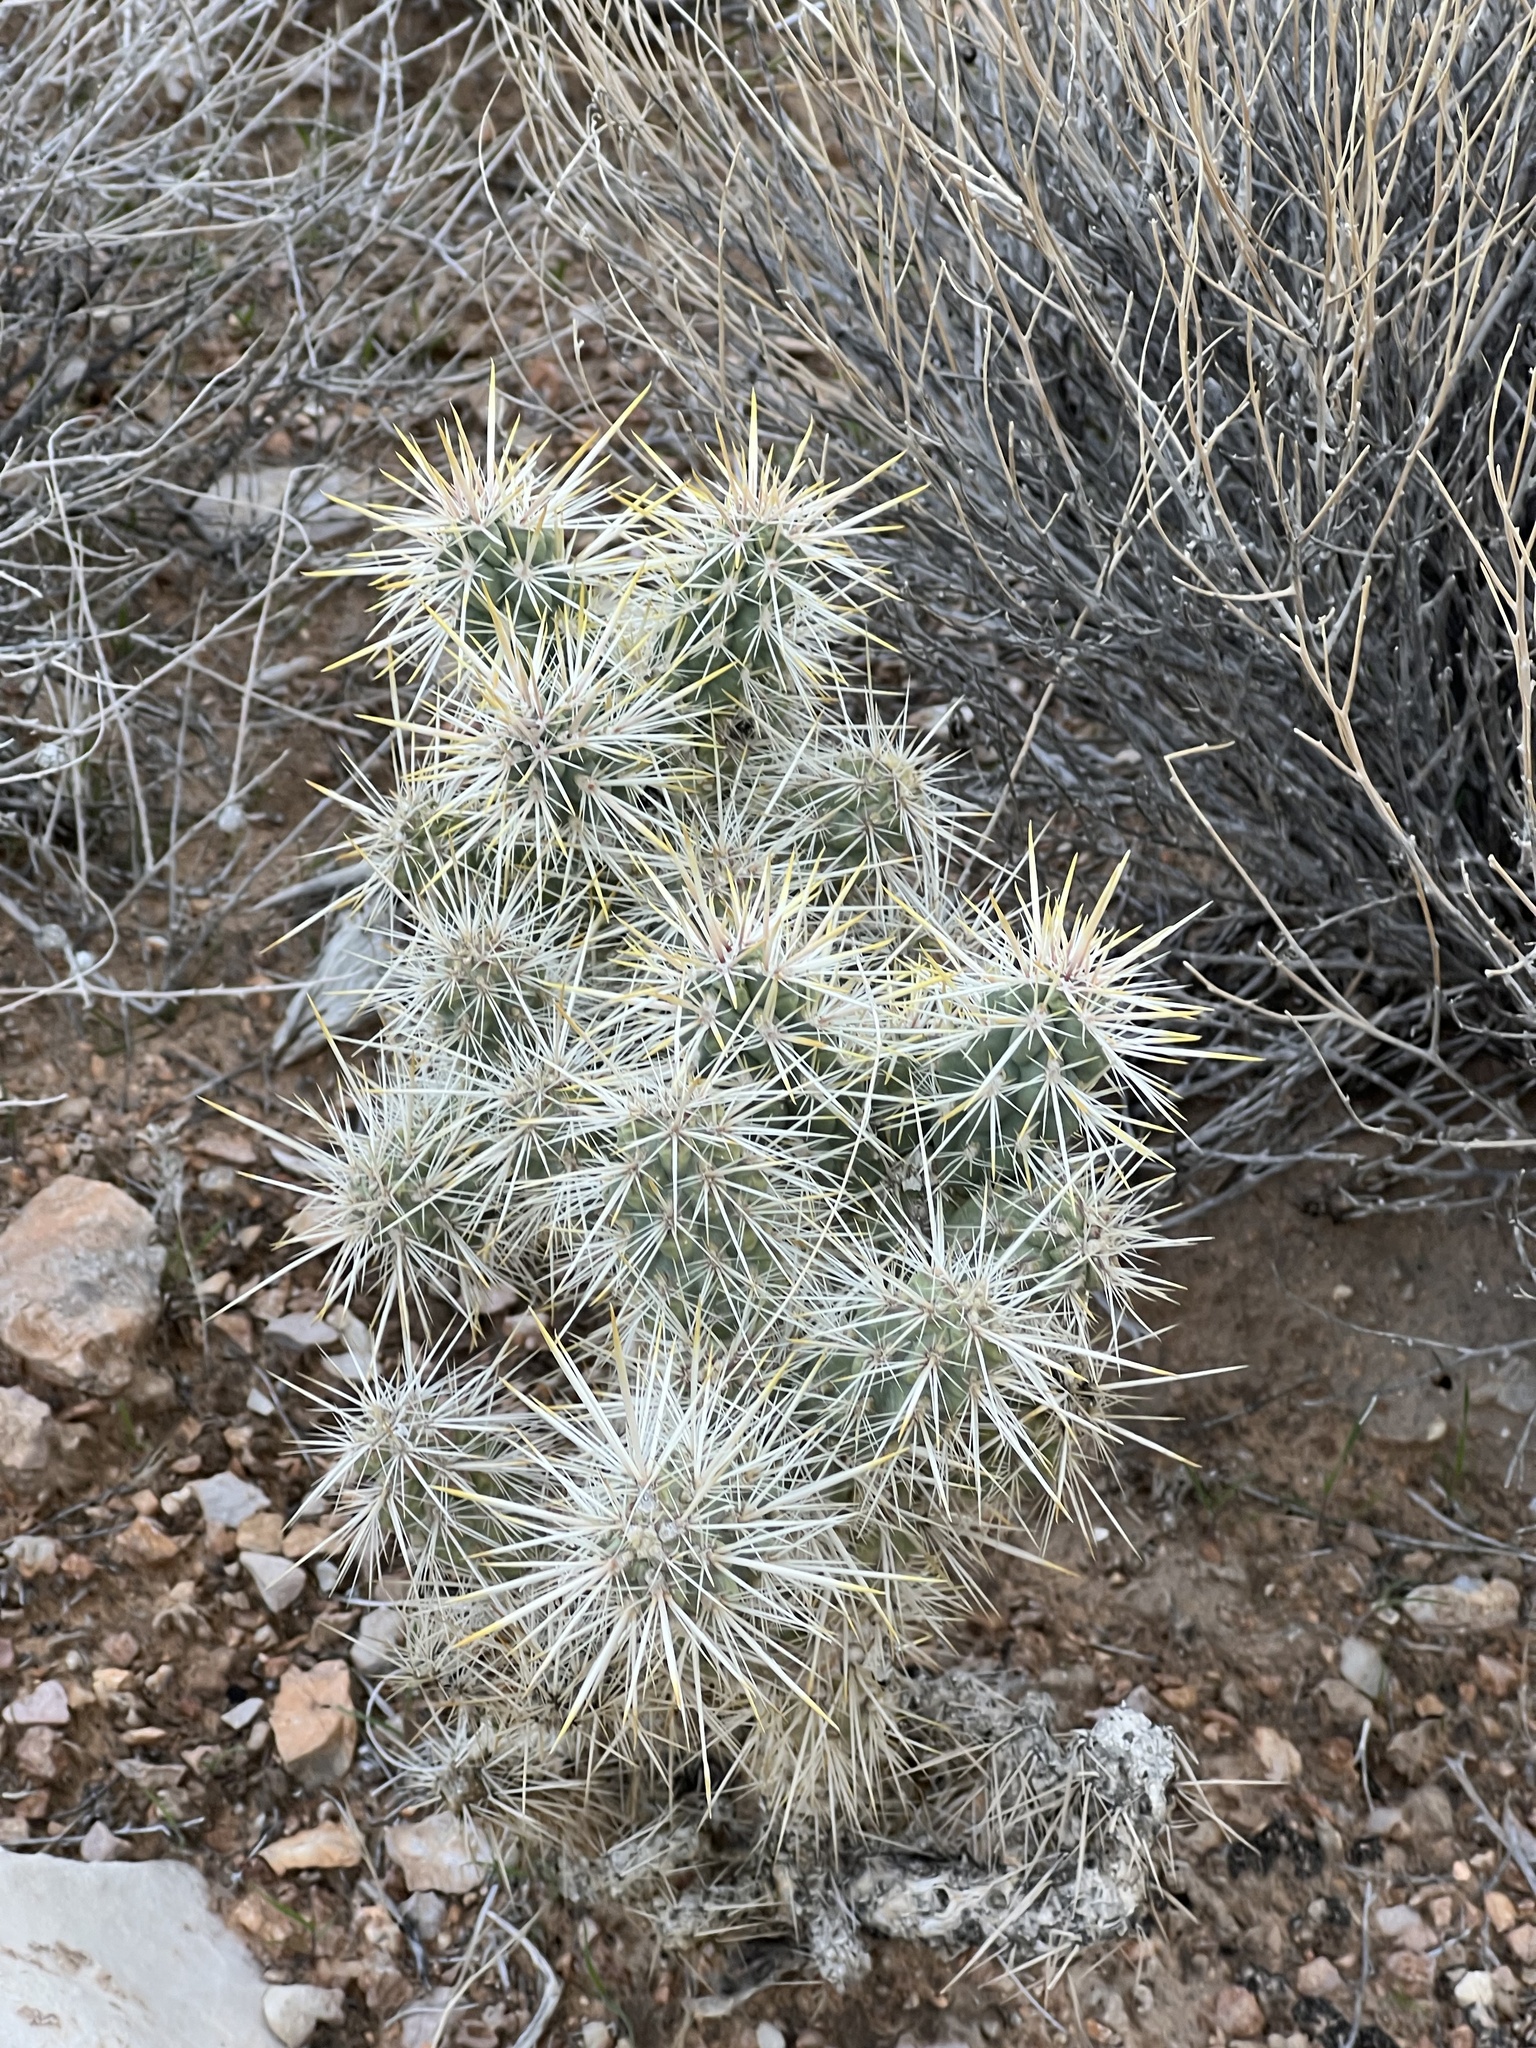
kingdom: Plantae
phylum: Tracheophyta
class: Magnoliopsida
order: Caryophyllales
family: Cactaceae
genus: Cylindropuntia
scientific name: Cylindropuntia echinocarpa
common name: Ground cholla
